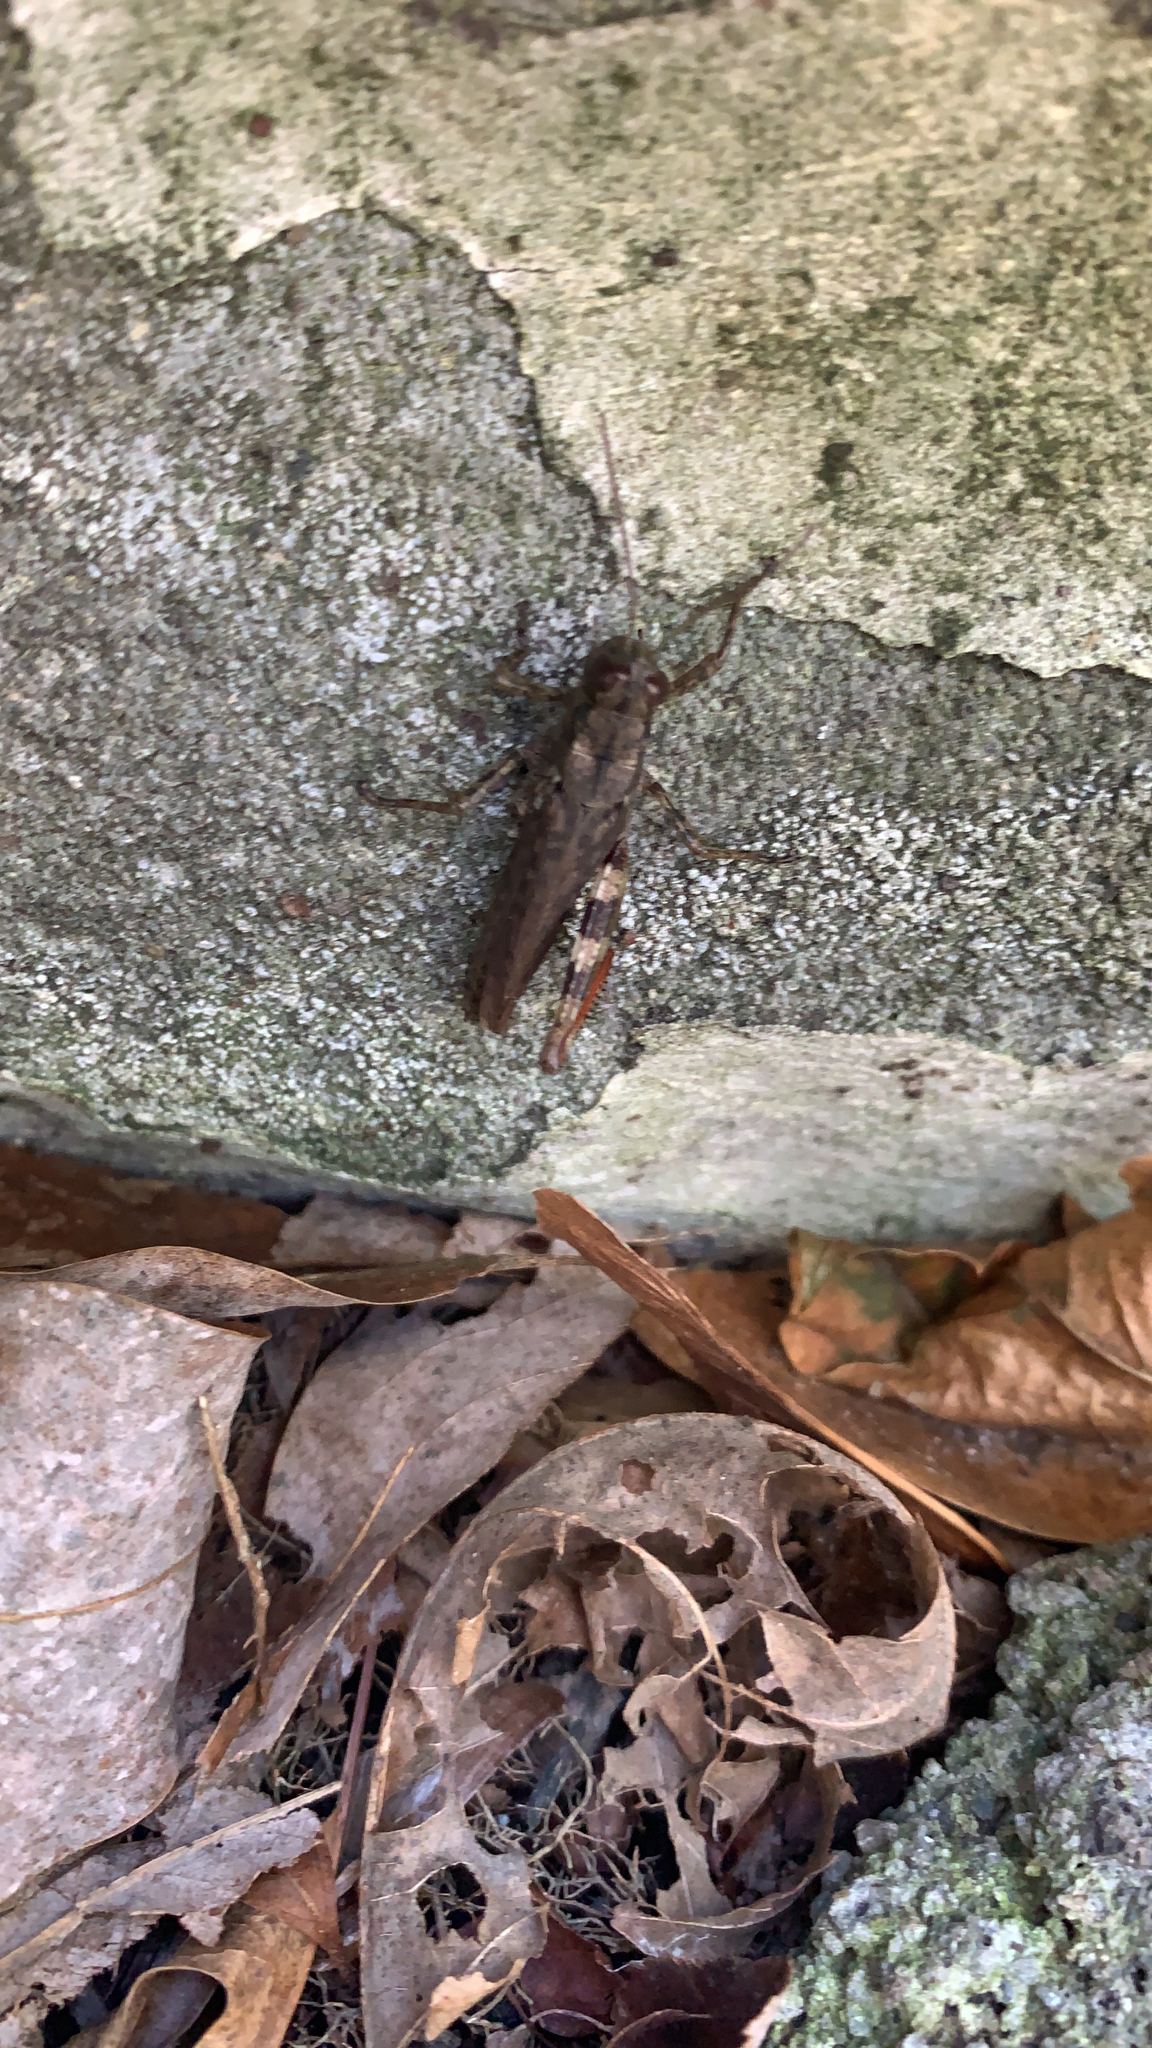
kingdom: Animalia
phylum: Arthropoda
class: Insecta
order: Orthoptera
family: Acrididae
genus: Melanoplus
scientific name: Melanoplus punctulatus
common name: Pine-tree spur-throat grasshopper
